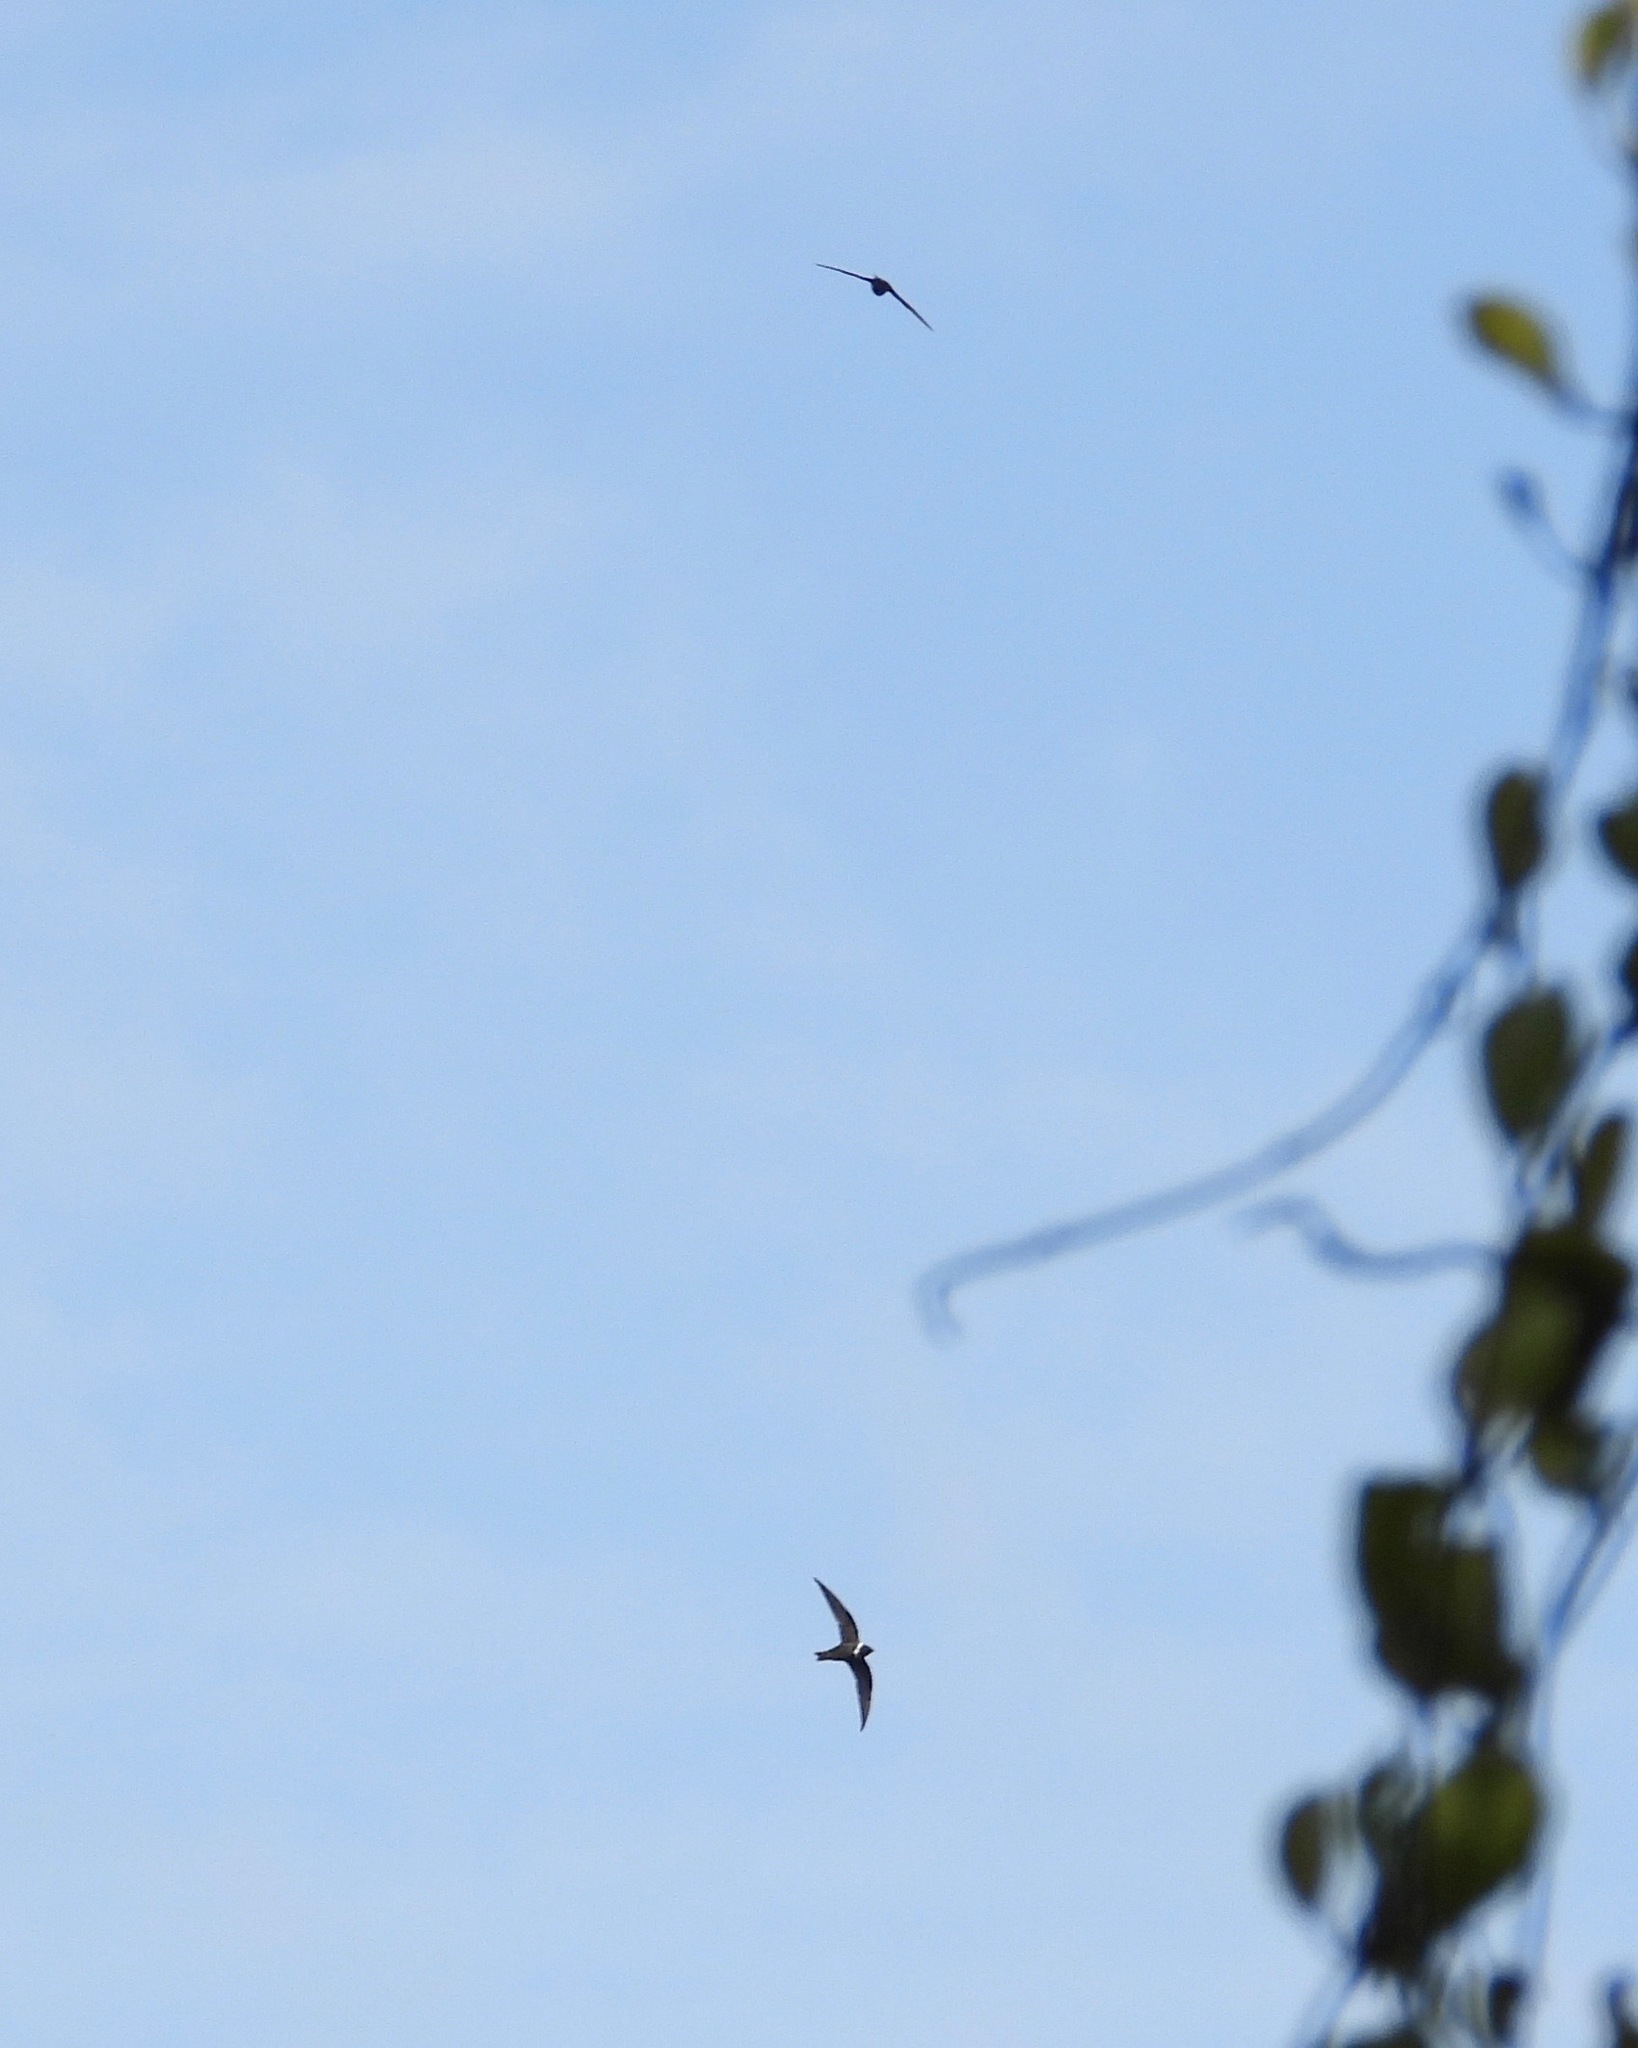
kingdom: Animalia
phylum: Chordata
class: Aves
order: Apodiformes
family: Apodidae
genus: Streptoprocne
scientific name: Streptoprocne zonaris
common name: White-collared swift
